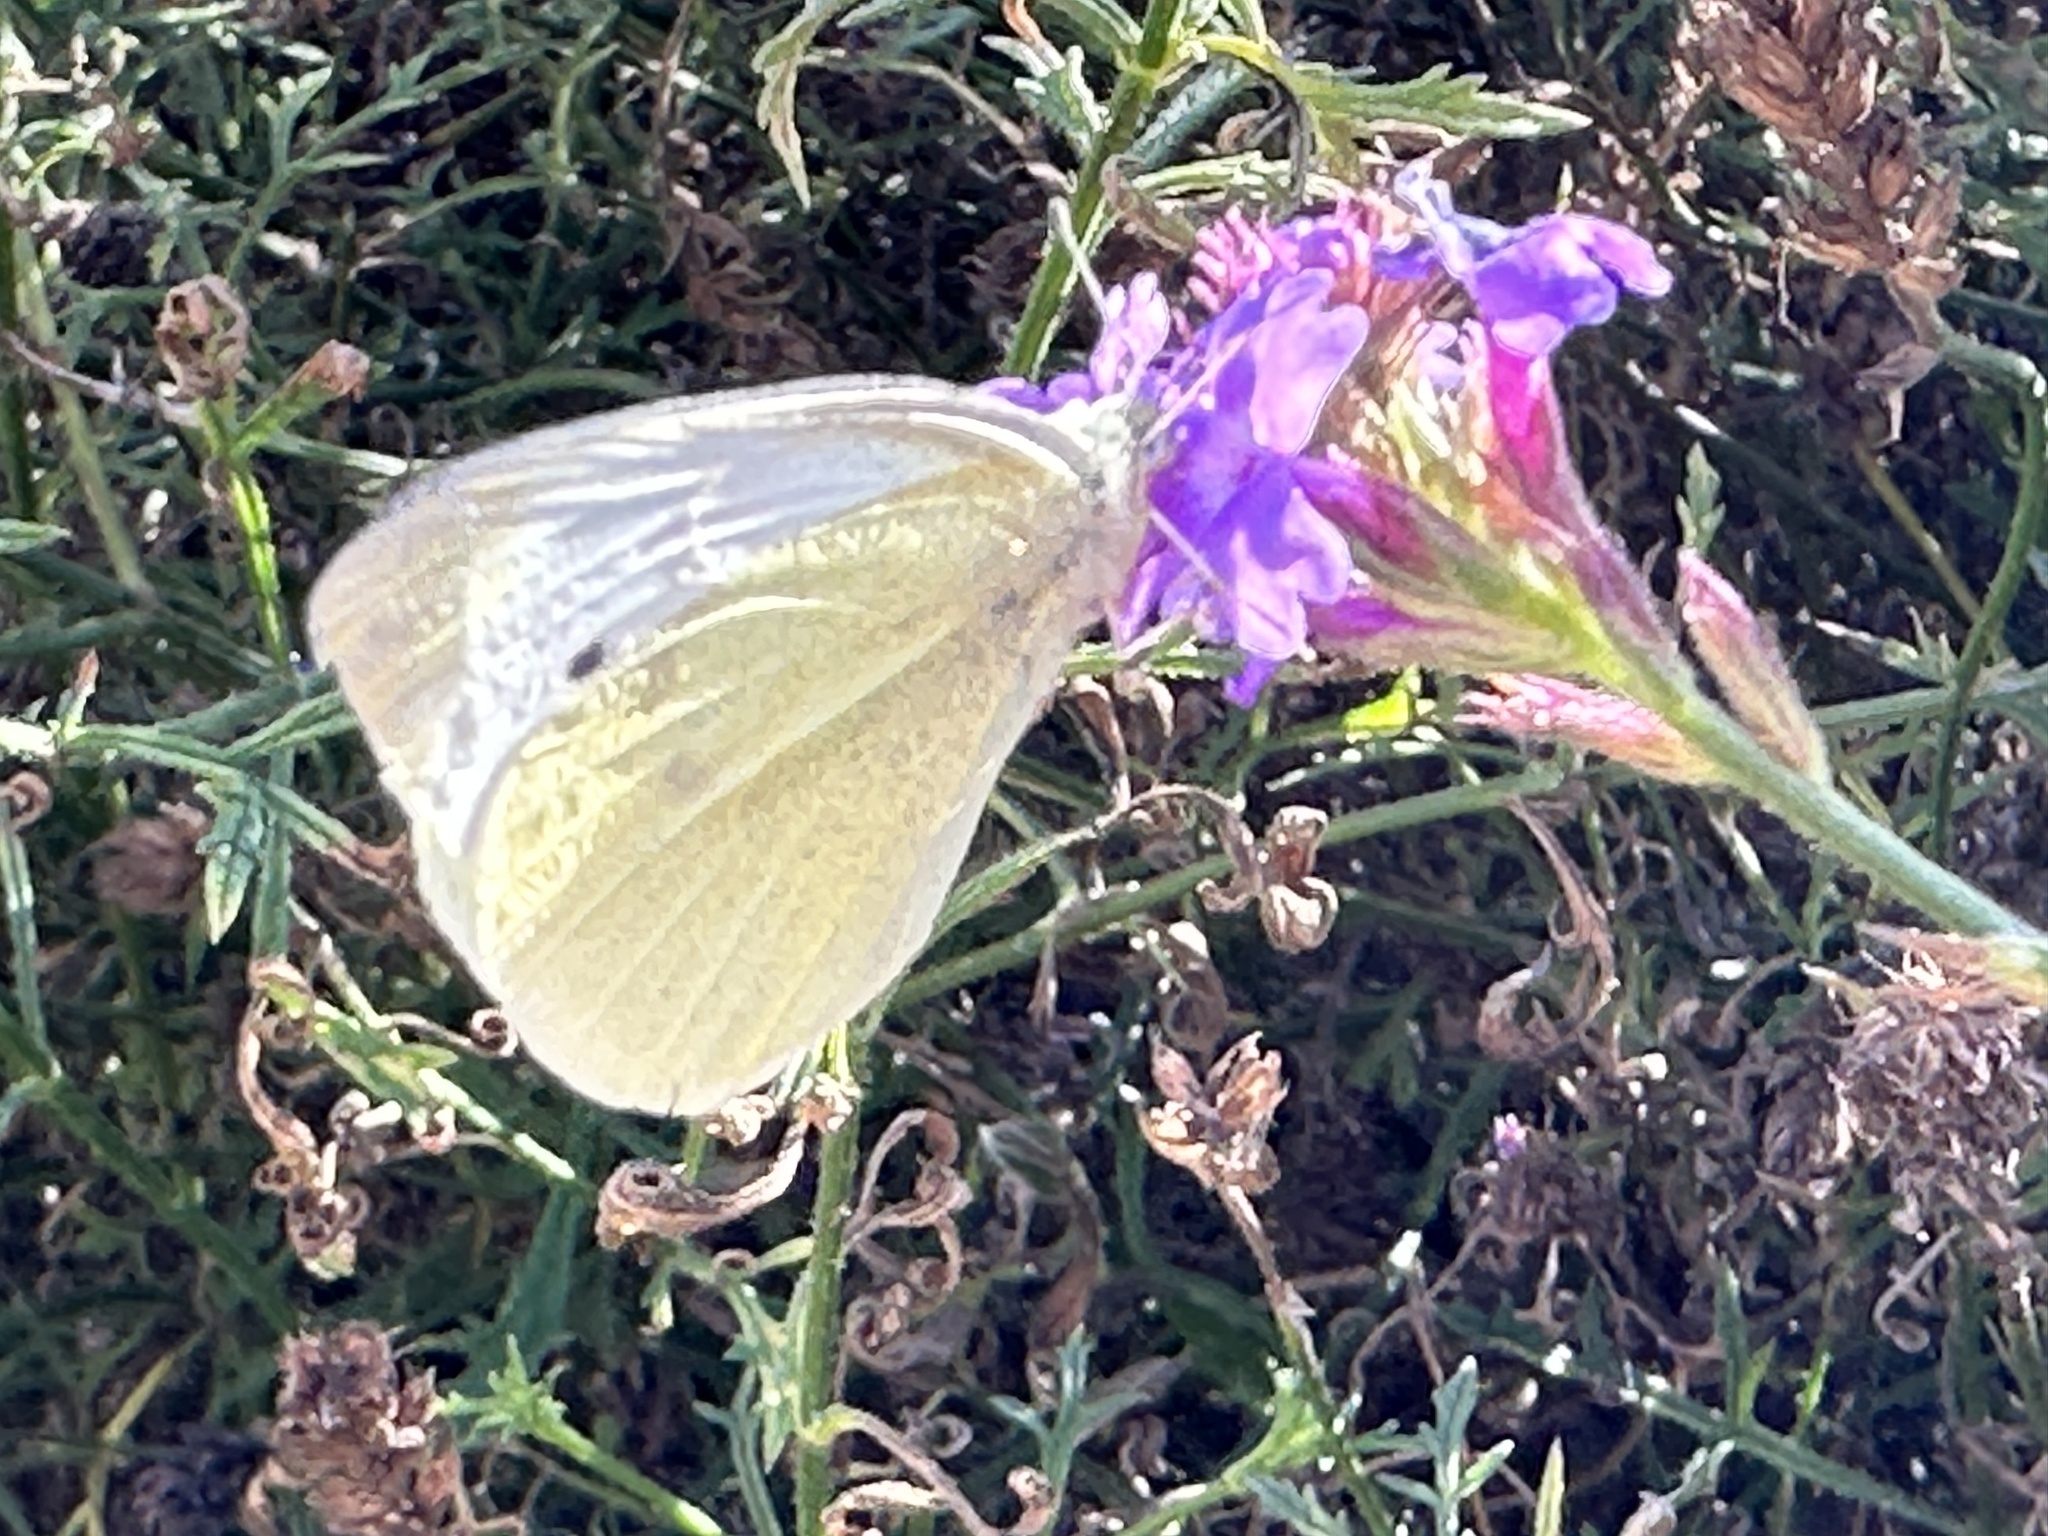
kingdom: Animalia
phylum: Arthropoda
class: Insecta
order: Lepidoptera
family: Pieridae
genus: Pieris
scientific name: Pieris rapae
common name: Small white
